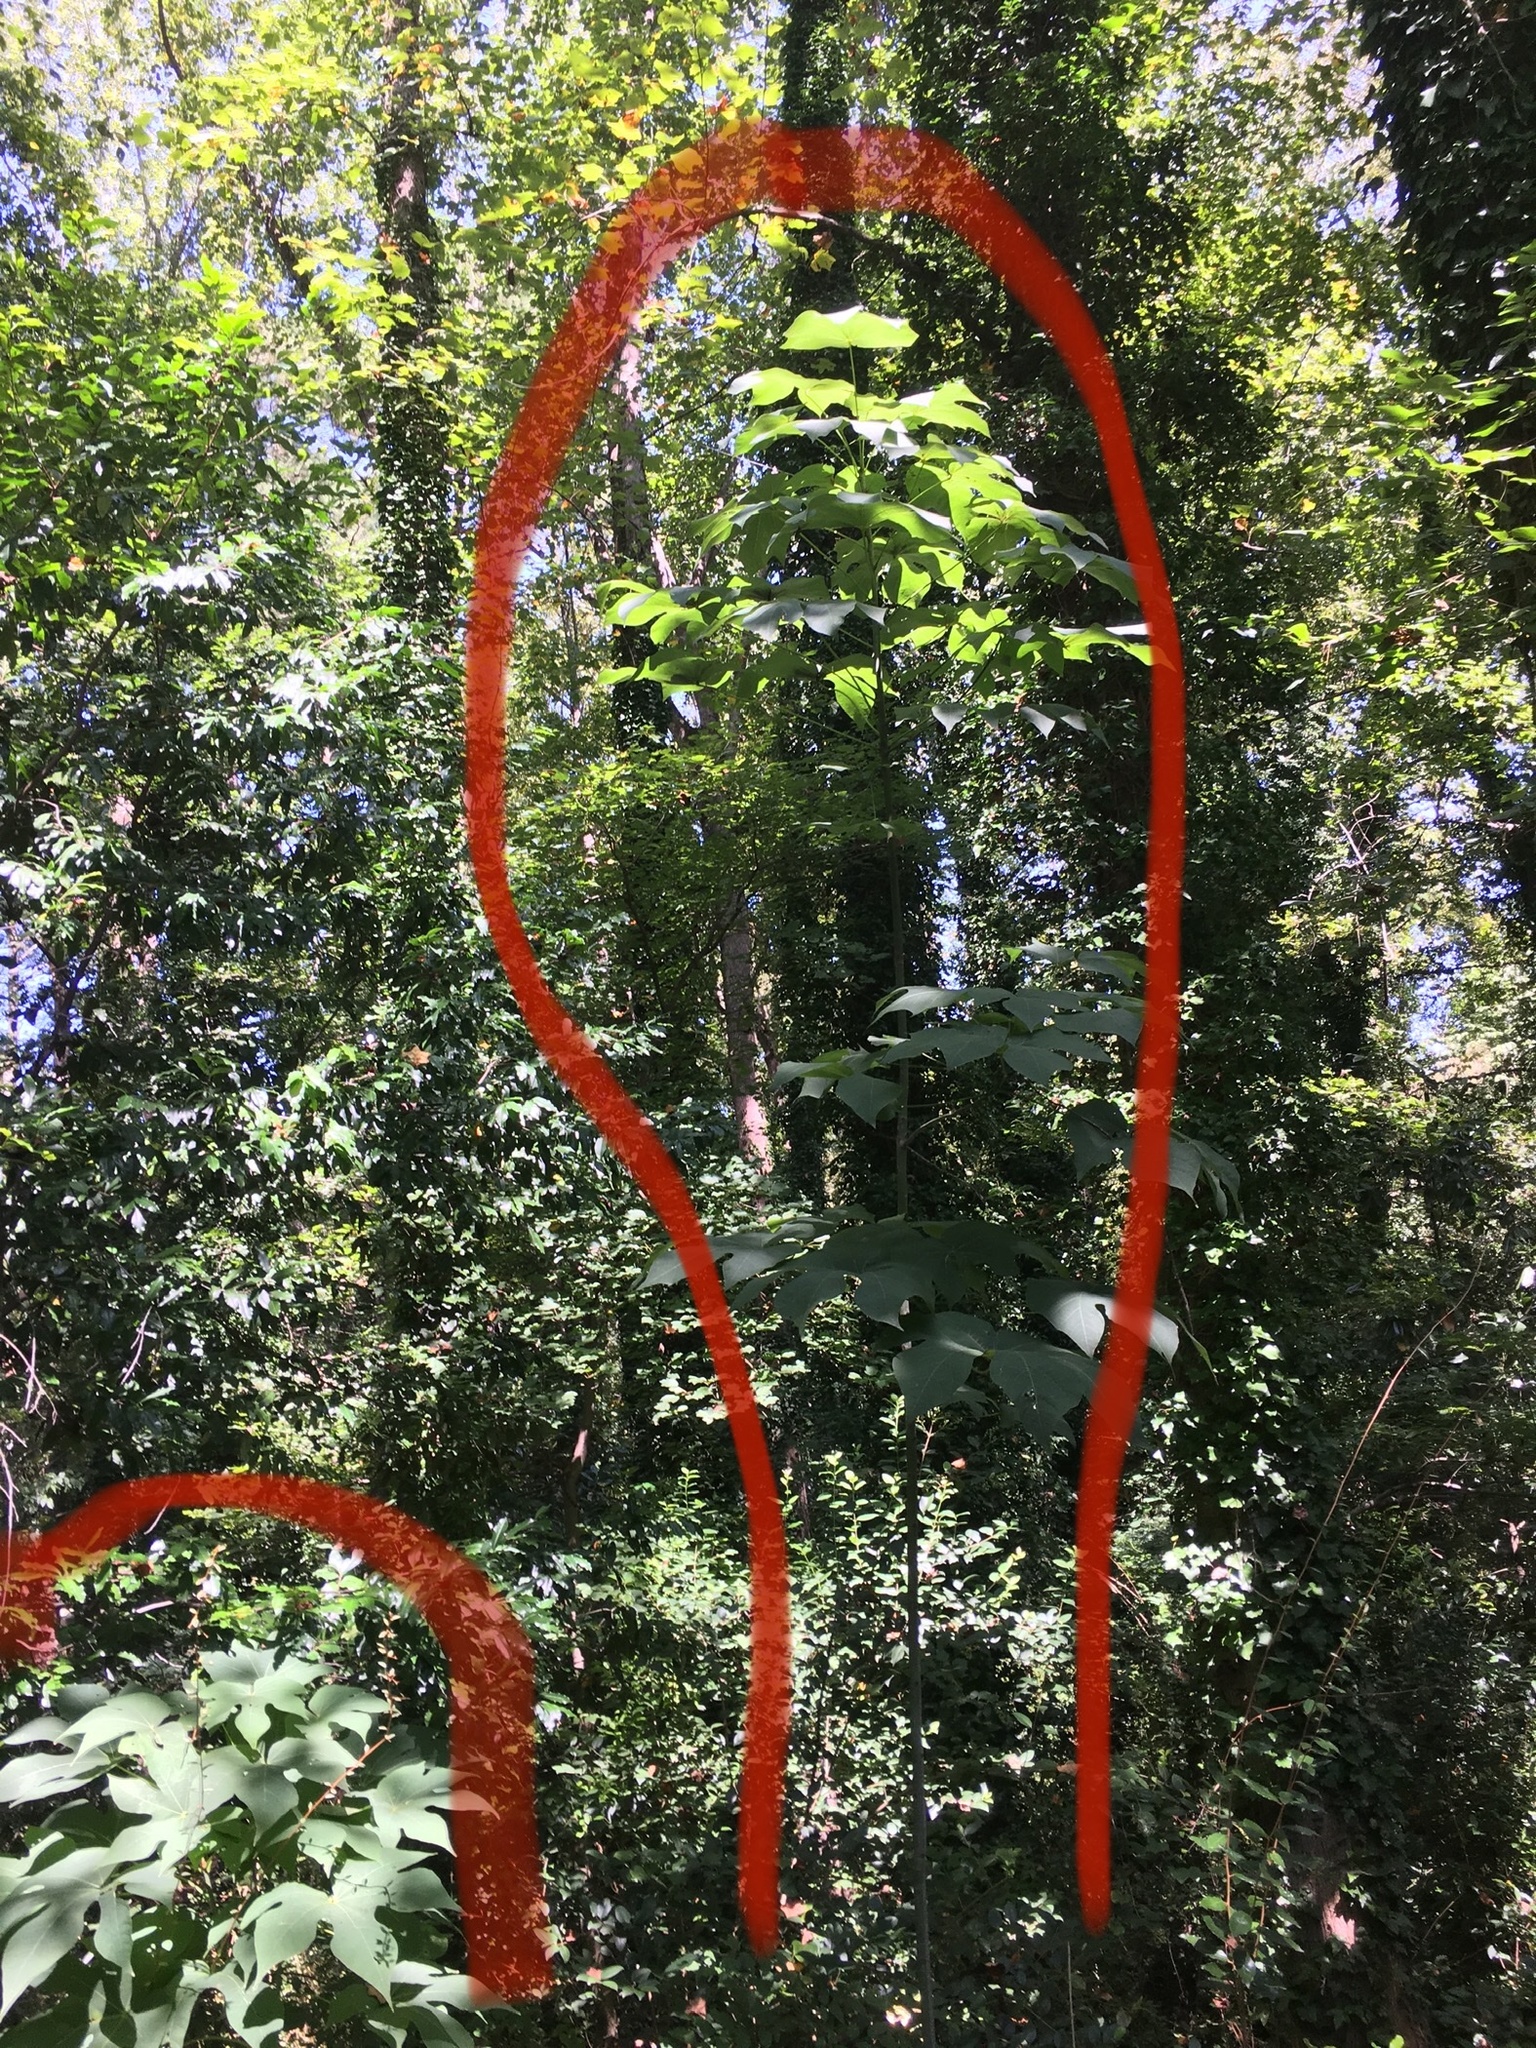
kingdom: Plantae
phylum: Tracheophyta
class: Magnoliopsida
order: Malvales
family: Malvaceae
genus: Firmiana
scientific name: Firmiana simplex
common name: Chinese parasoltree
